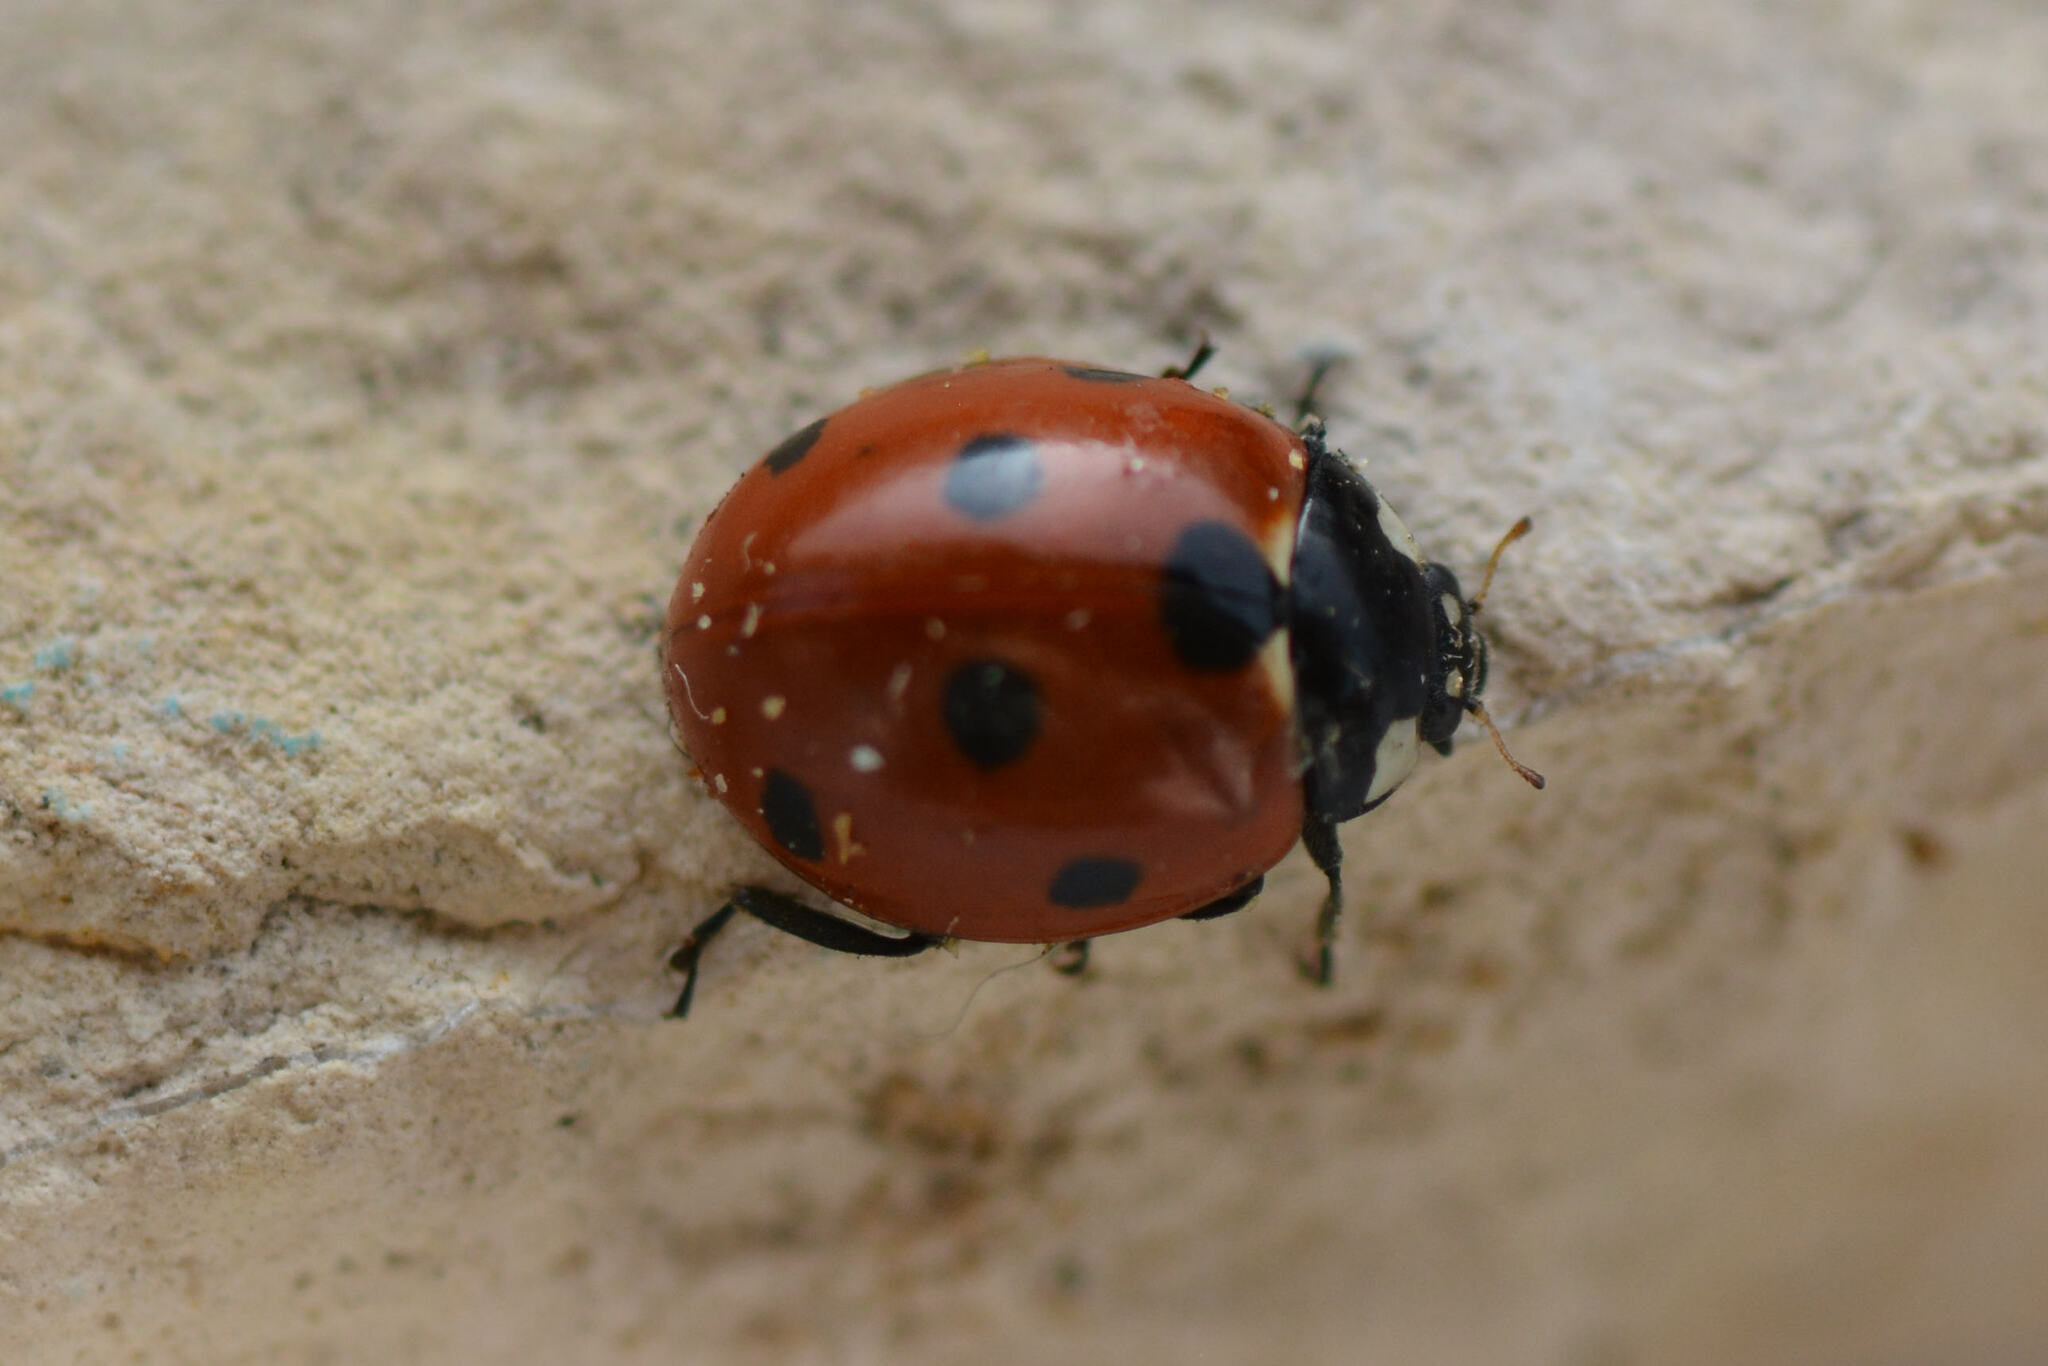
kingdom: Animalia
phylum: Arthropoda
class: Insecta
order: Coleoptera
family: Coccinellidae
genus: Coccinella
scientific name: Coccinella septempunctata
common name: Sevenspotted lady beetle
